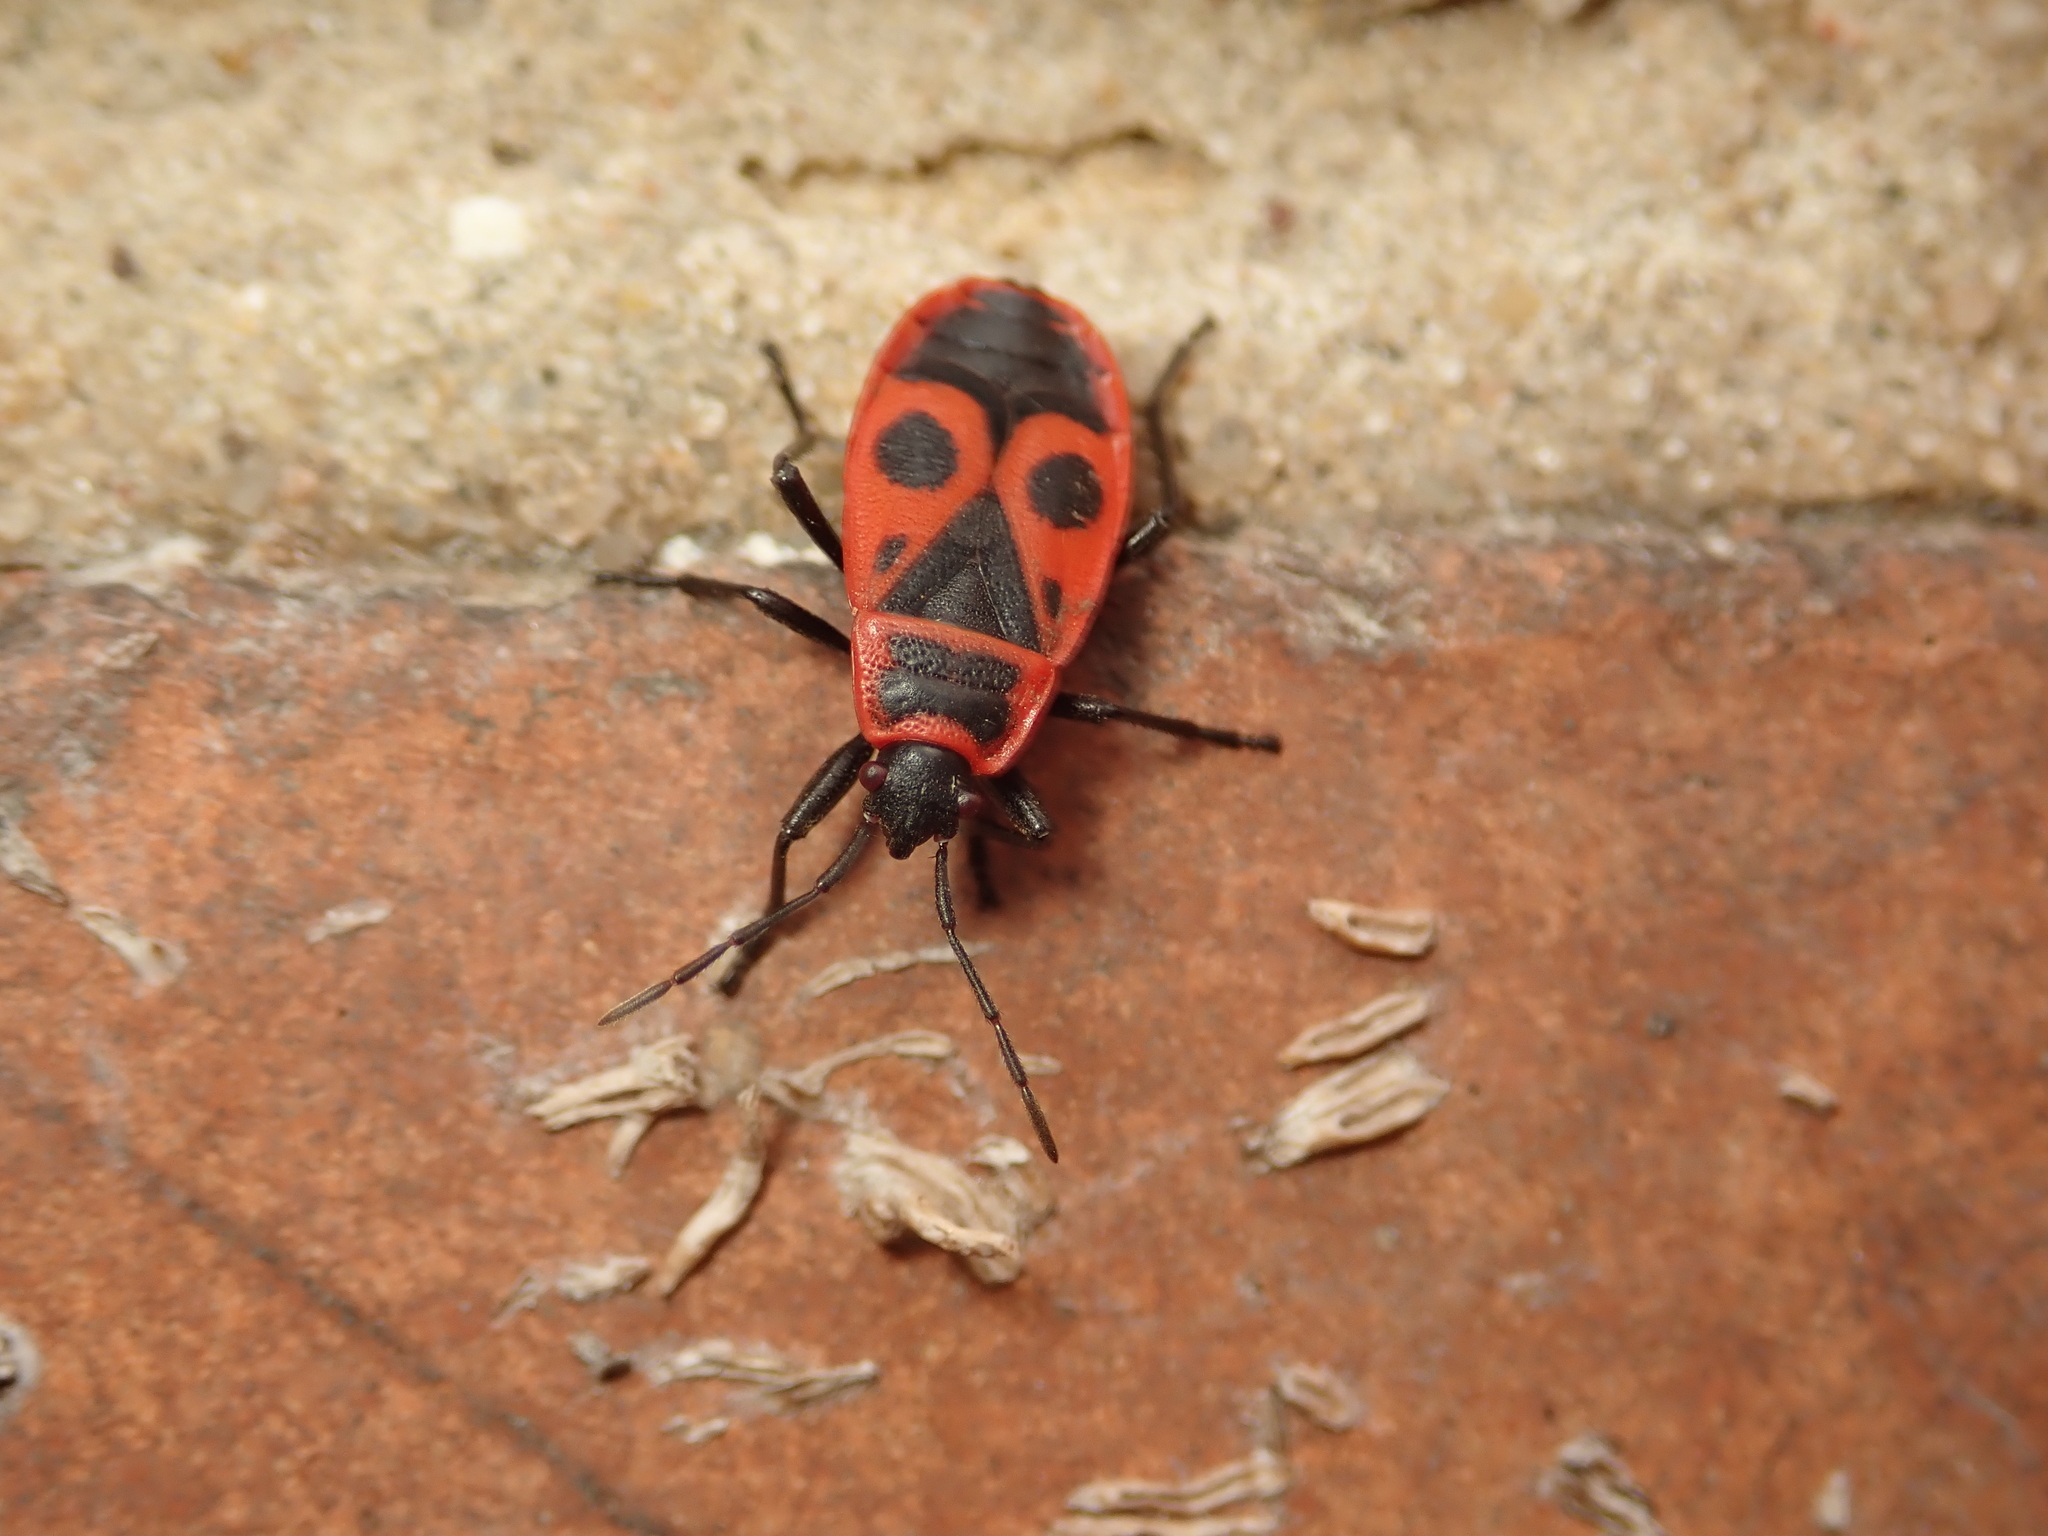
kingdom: Animalia
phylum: Arthropoda
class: Insecta
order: Hemiptera
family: Pyrrhocoridae
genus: Pyrrhocoris
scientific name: Pyrrhocoris apterus
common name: Firebug
